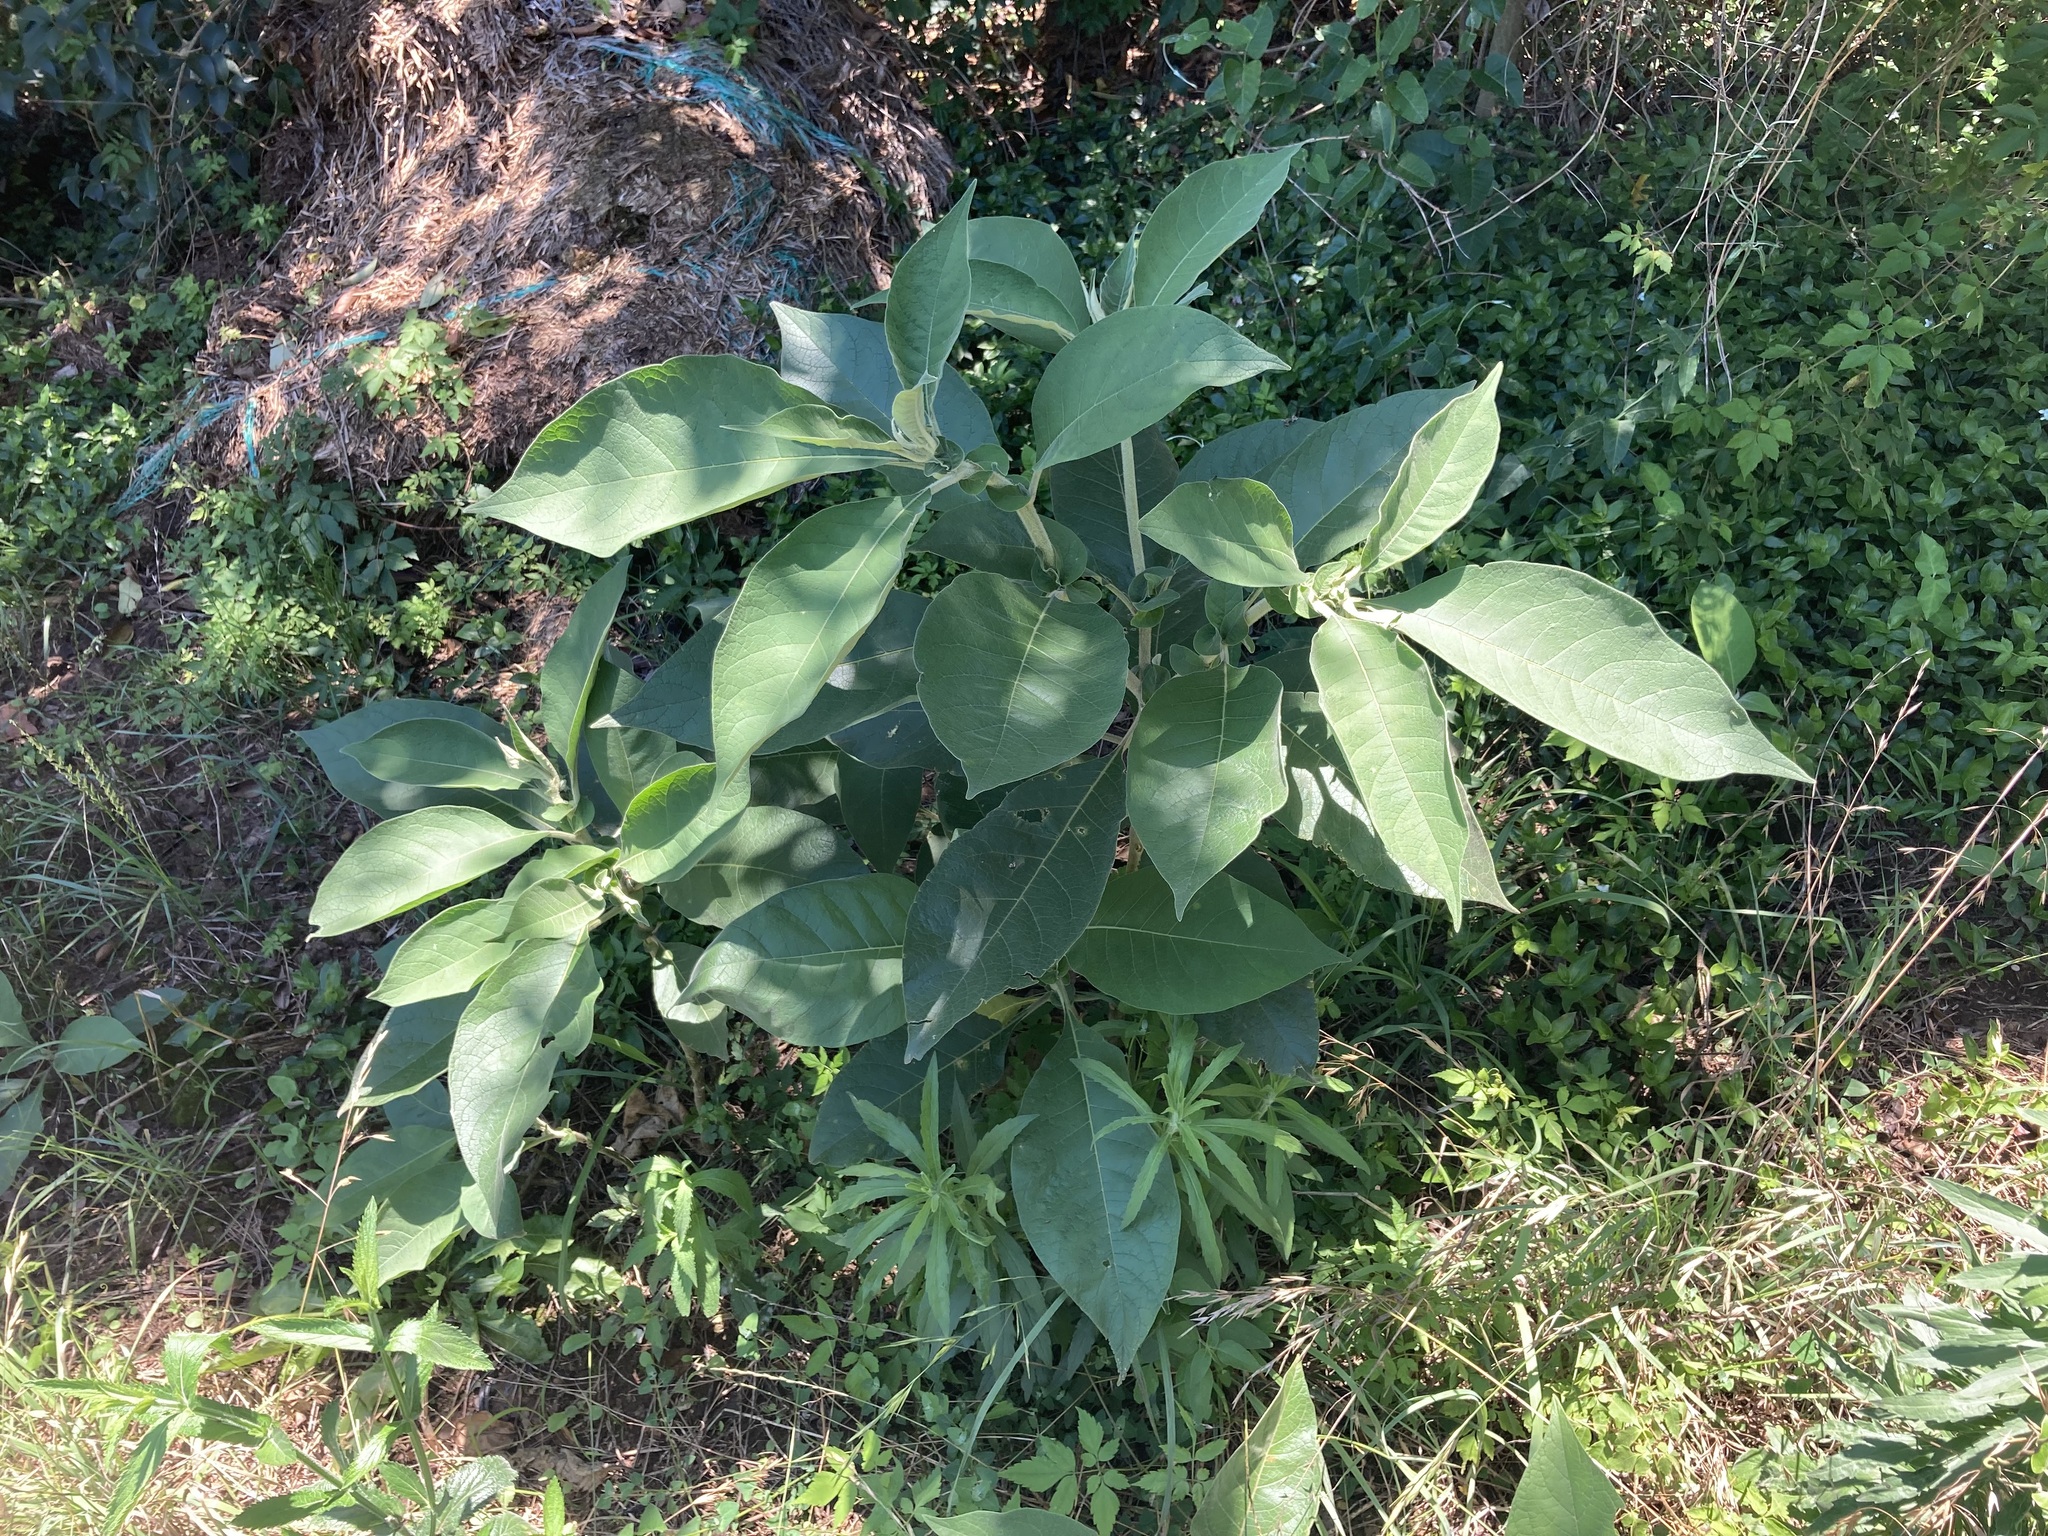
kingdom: Plantae
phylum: Tracheophyta
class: Magnoliopsida
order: Solanales
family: Solanaceae
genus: Solanum
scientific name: Solanum mauritianum
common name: Earleaf nightshade
